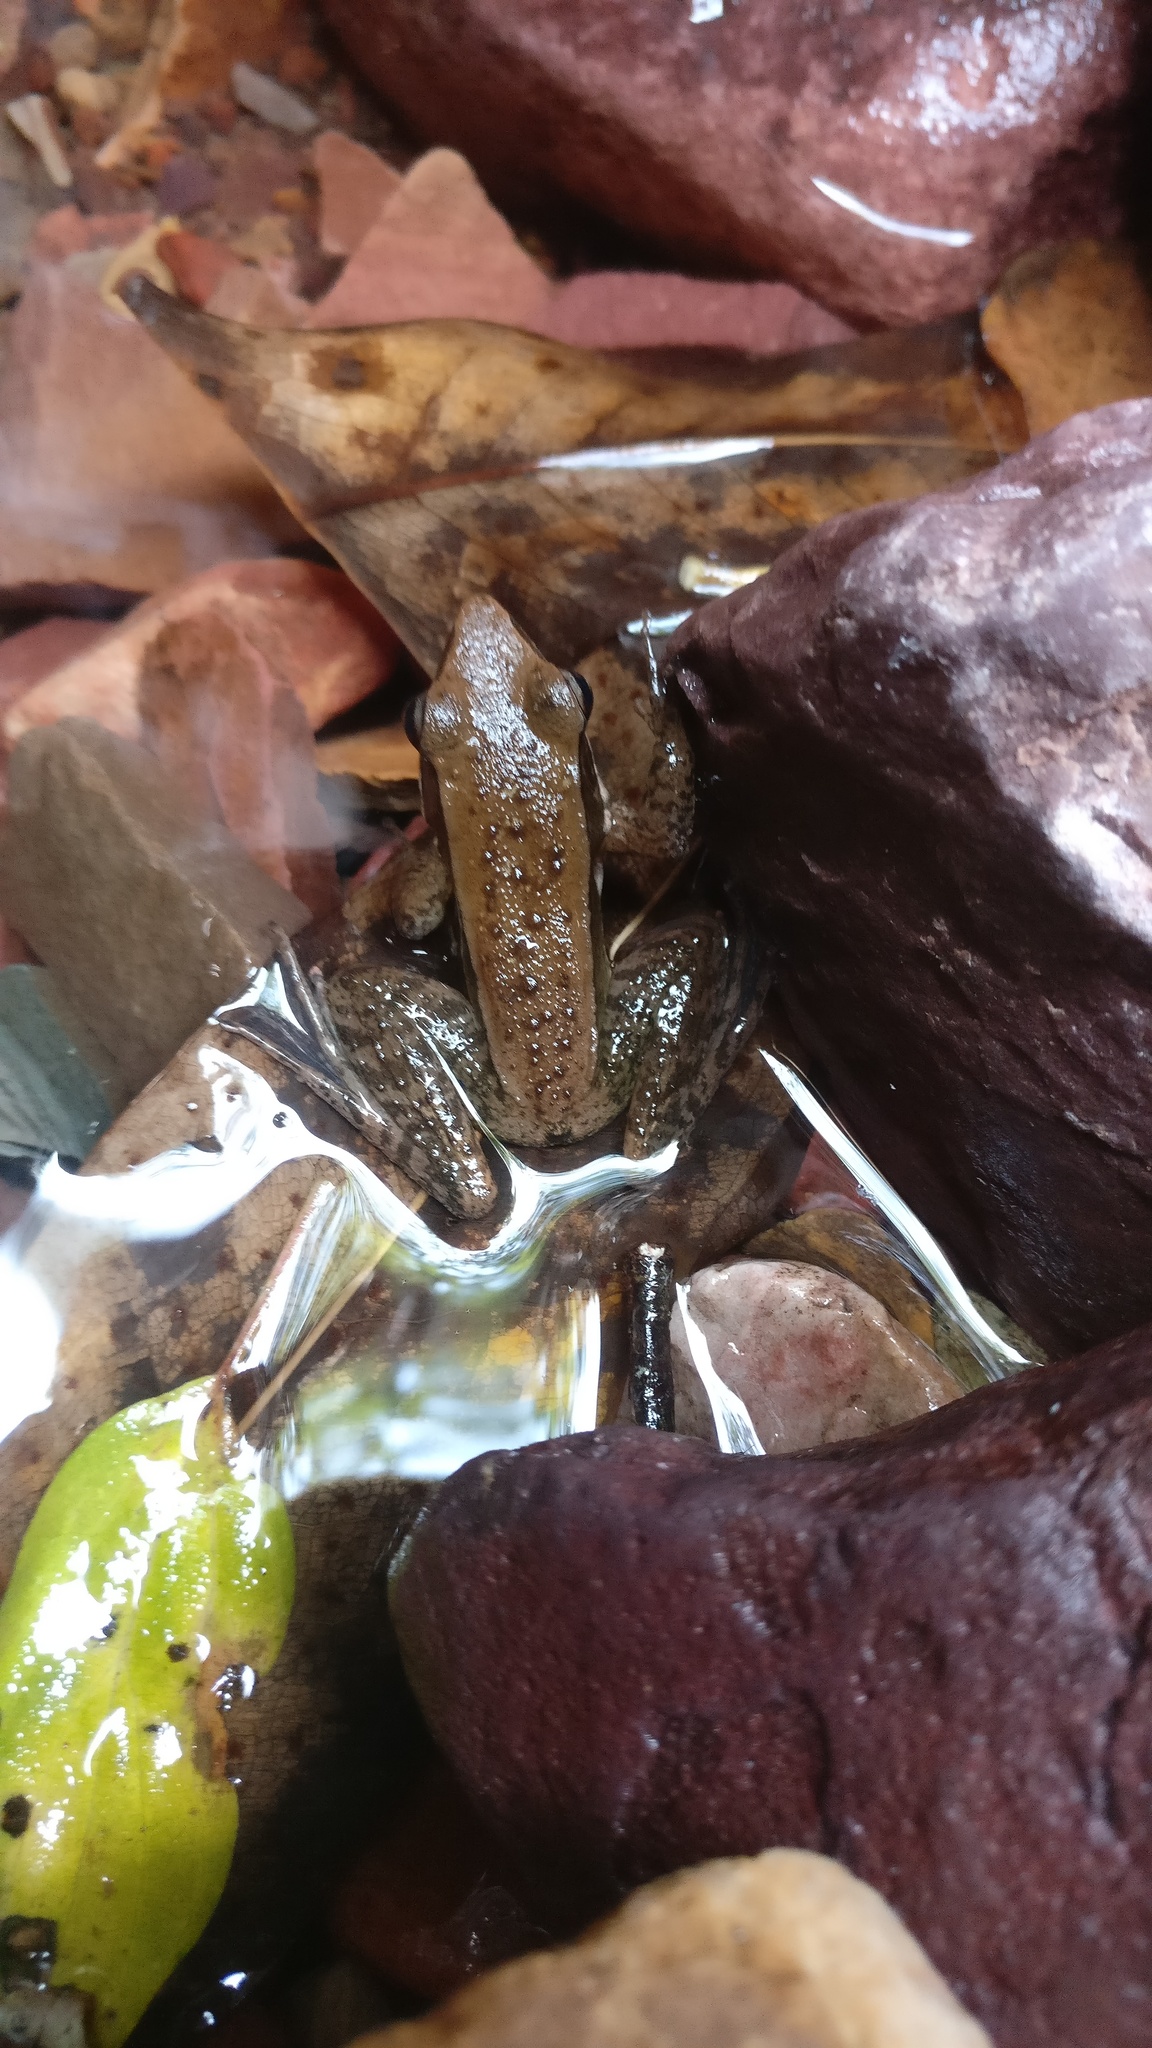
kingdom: Animalia
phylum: Chordata
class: Amphibia
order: Anura
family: Ranidae
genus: Indosylvirana
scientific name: Indosylvirana sreeni
